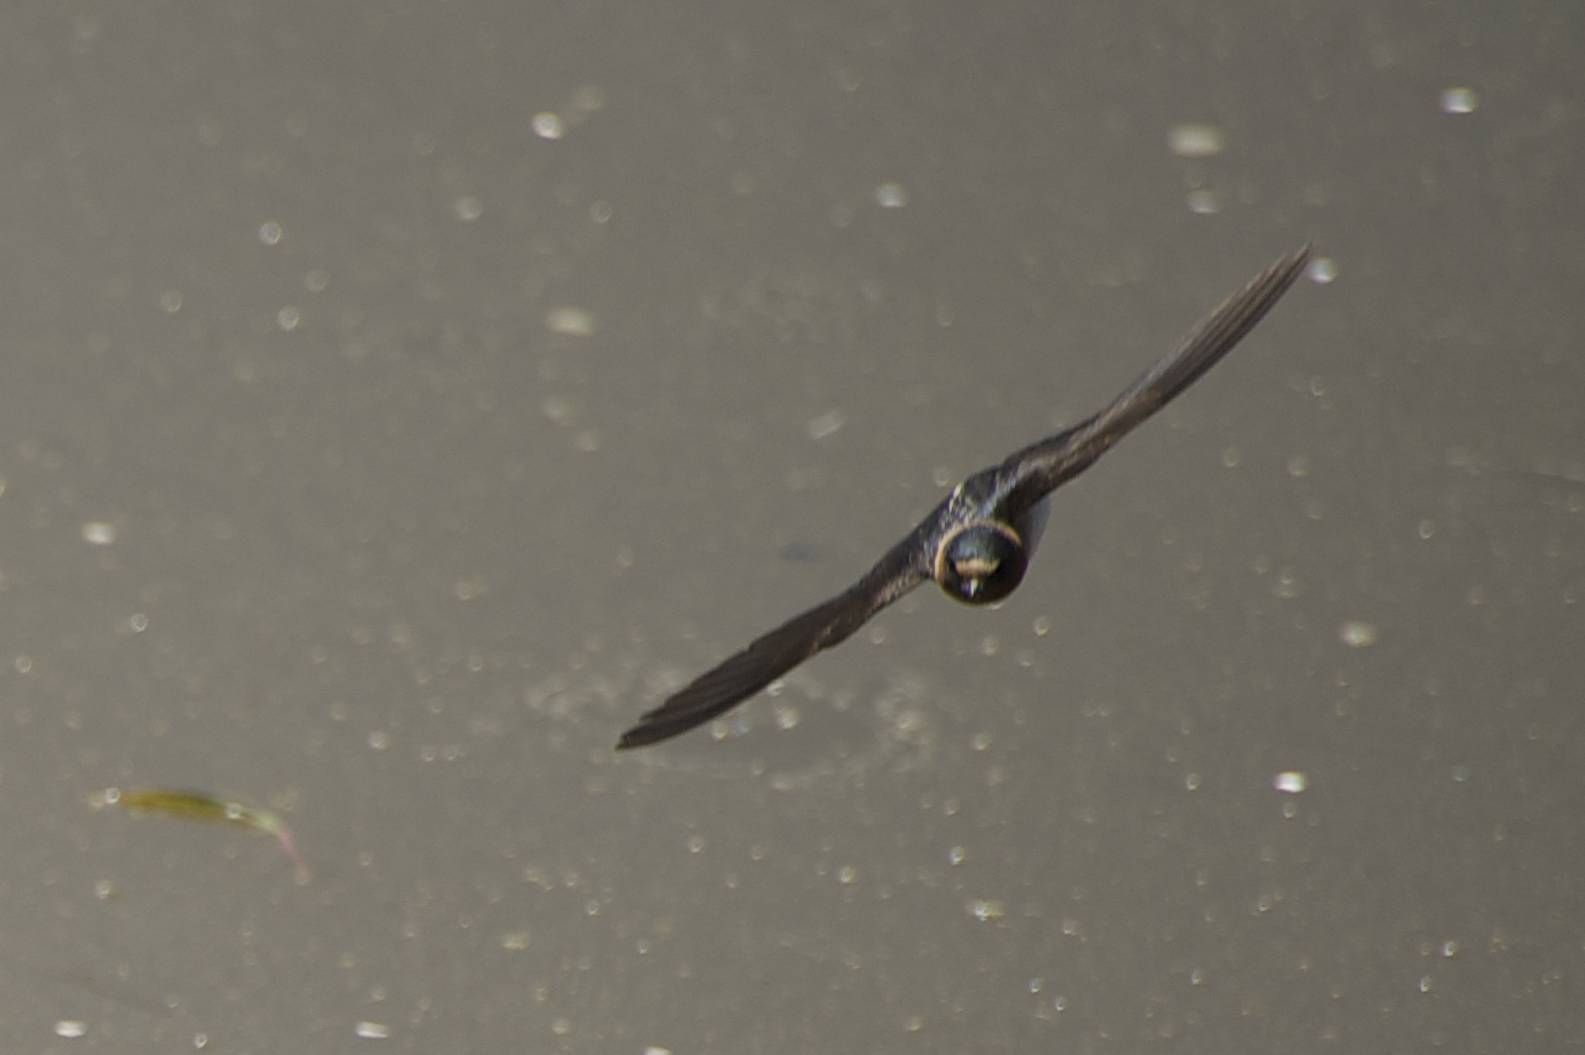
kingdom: Animalia
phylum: Chordata
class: Aves
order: Passeriformes
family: Hirundinidae
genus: Petrochelidon
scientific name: Petrochelidon pyrrhonota
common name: American cliff swallow
